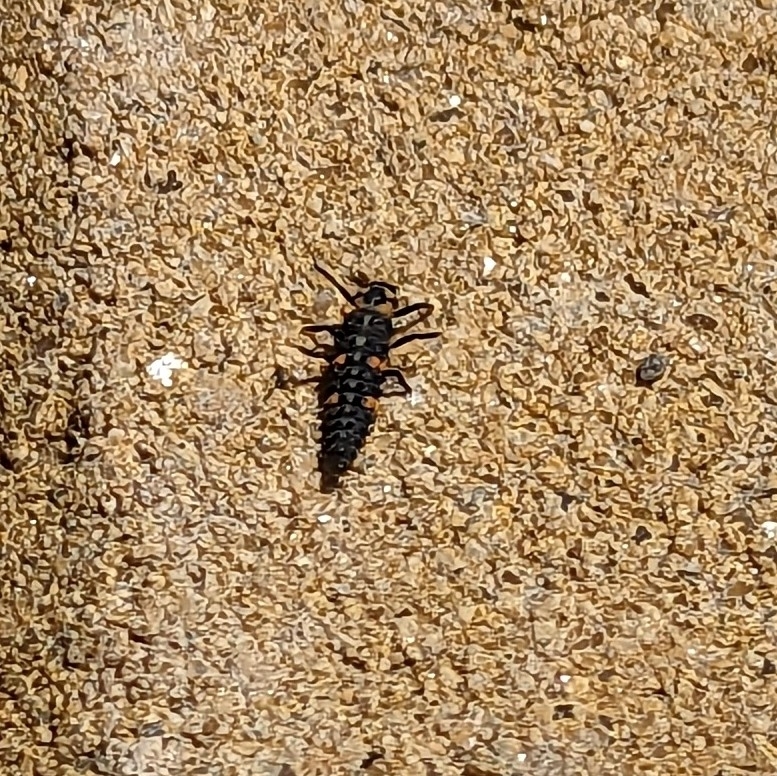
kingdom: Animalia
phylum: Arthropoda
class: Insecta
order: Coleoptera
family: Coccinellidae
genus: Coccinella
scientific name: Coccinella septempunctata
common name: Sevenspotted lady beetle
